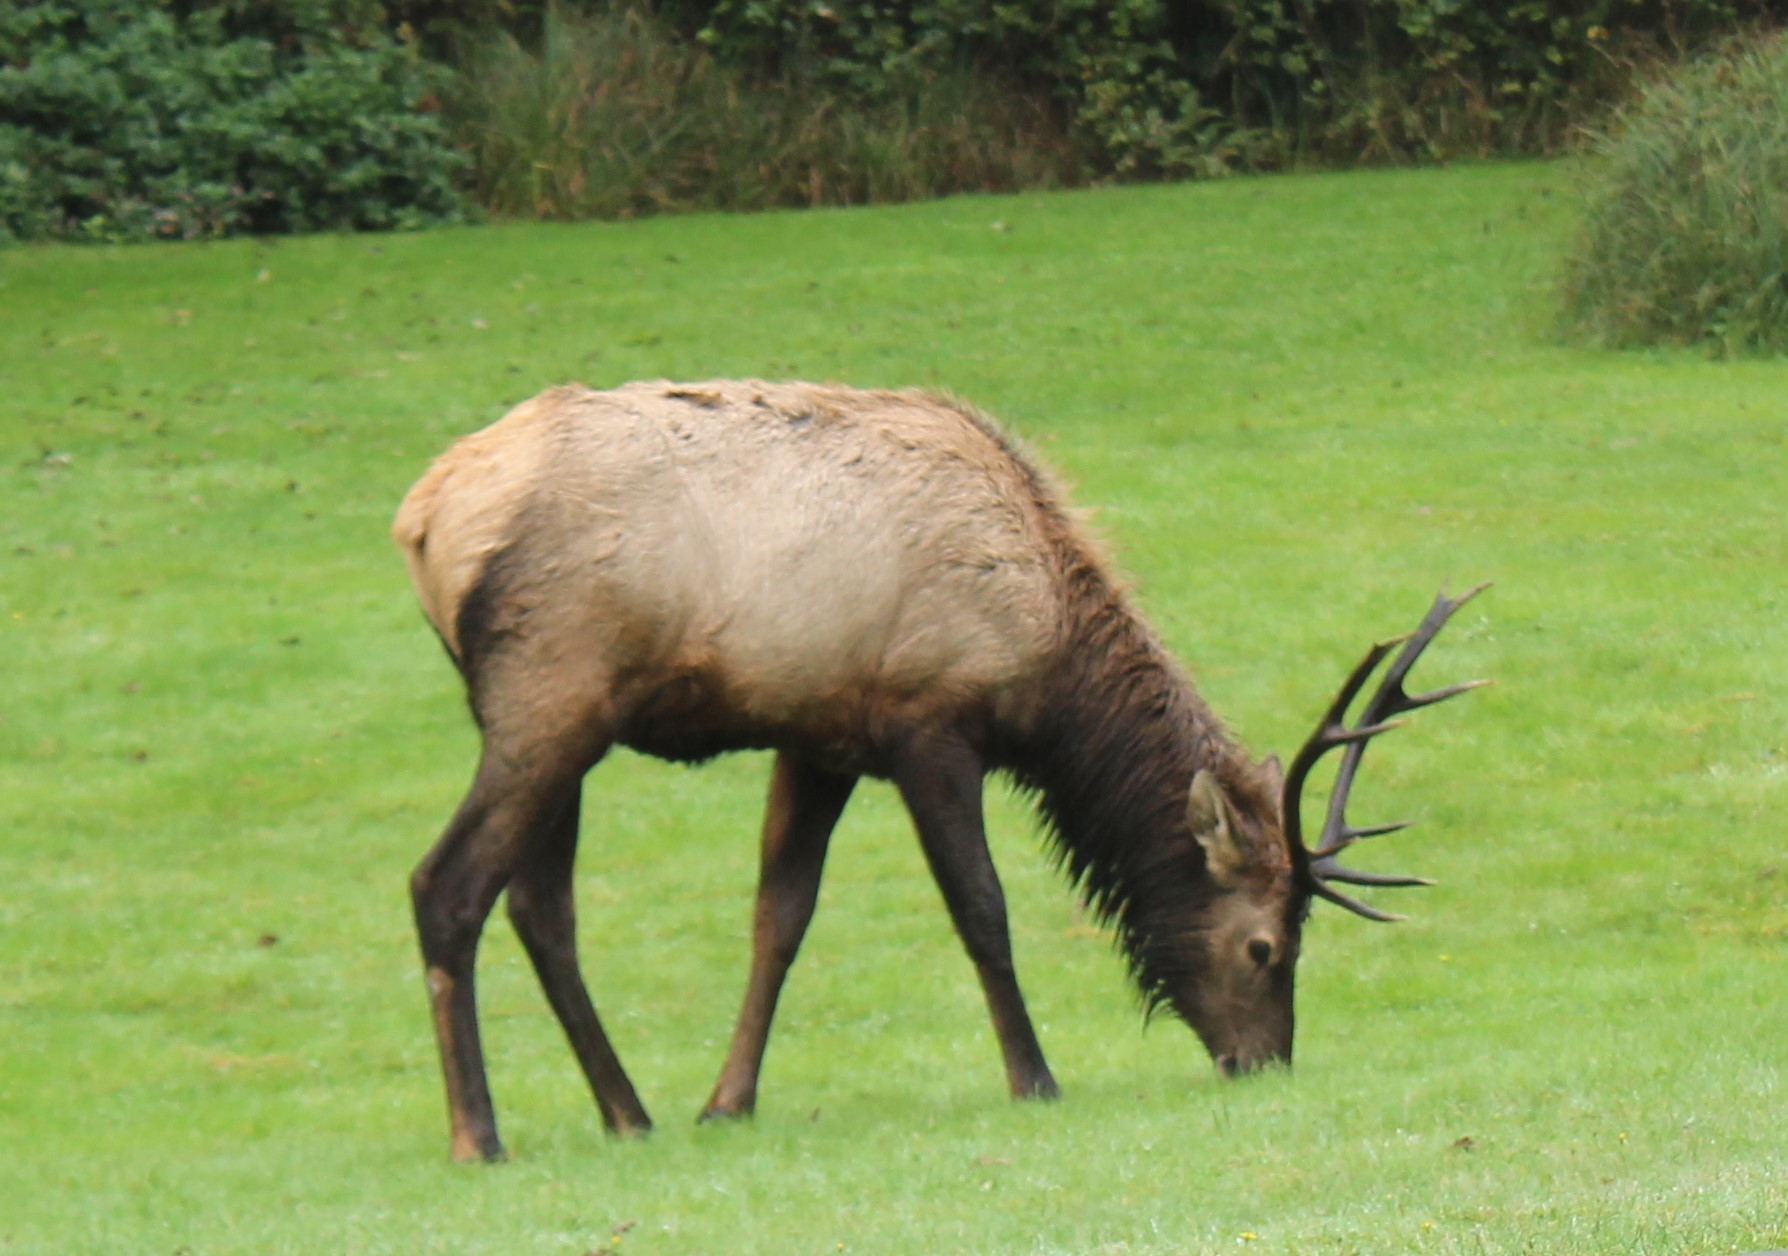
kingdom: Animalia
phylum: Chordata
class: Mammalia
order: Artiodactyla
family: Cervidae
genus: Cervus
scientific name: Cervus elaphus
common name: Red deer
